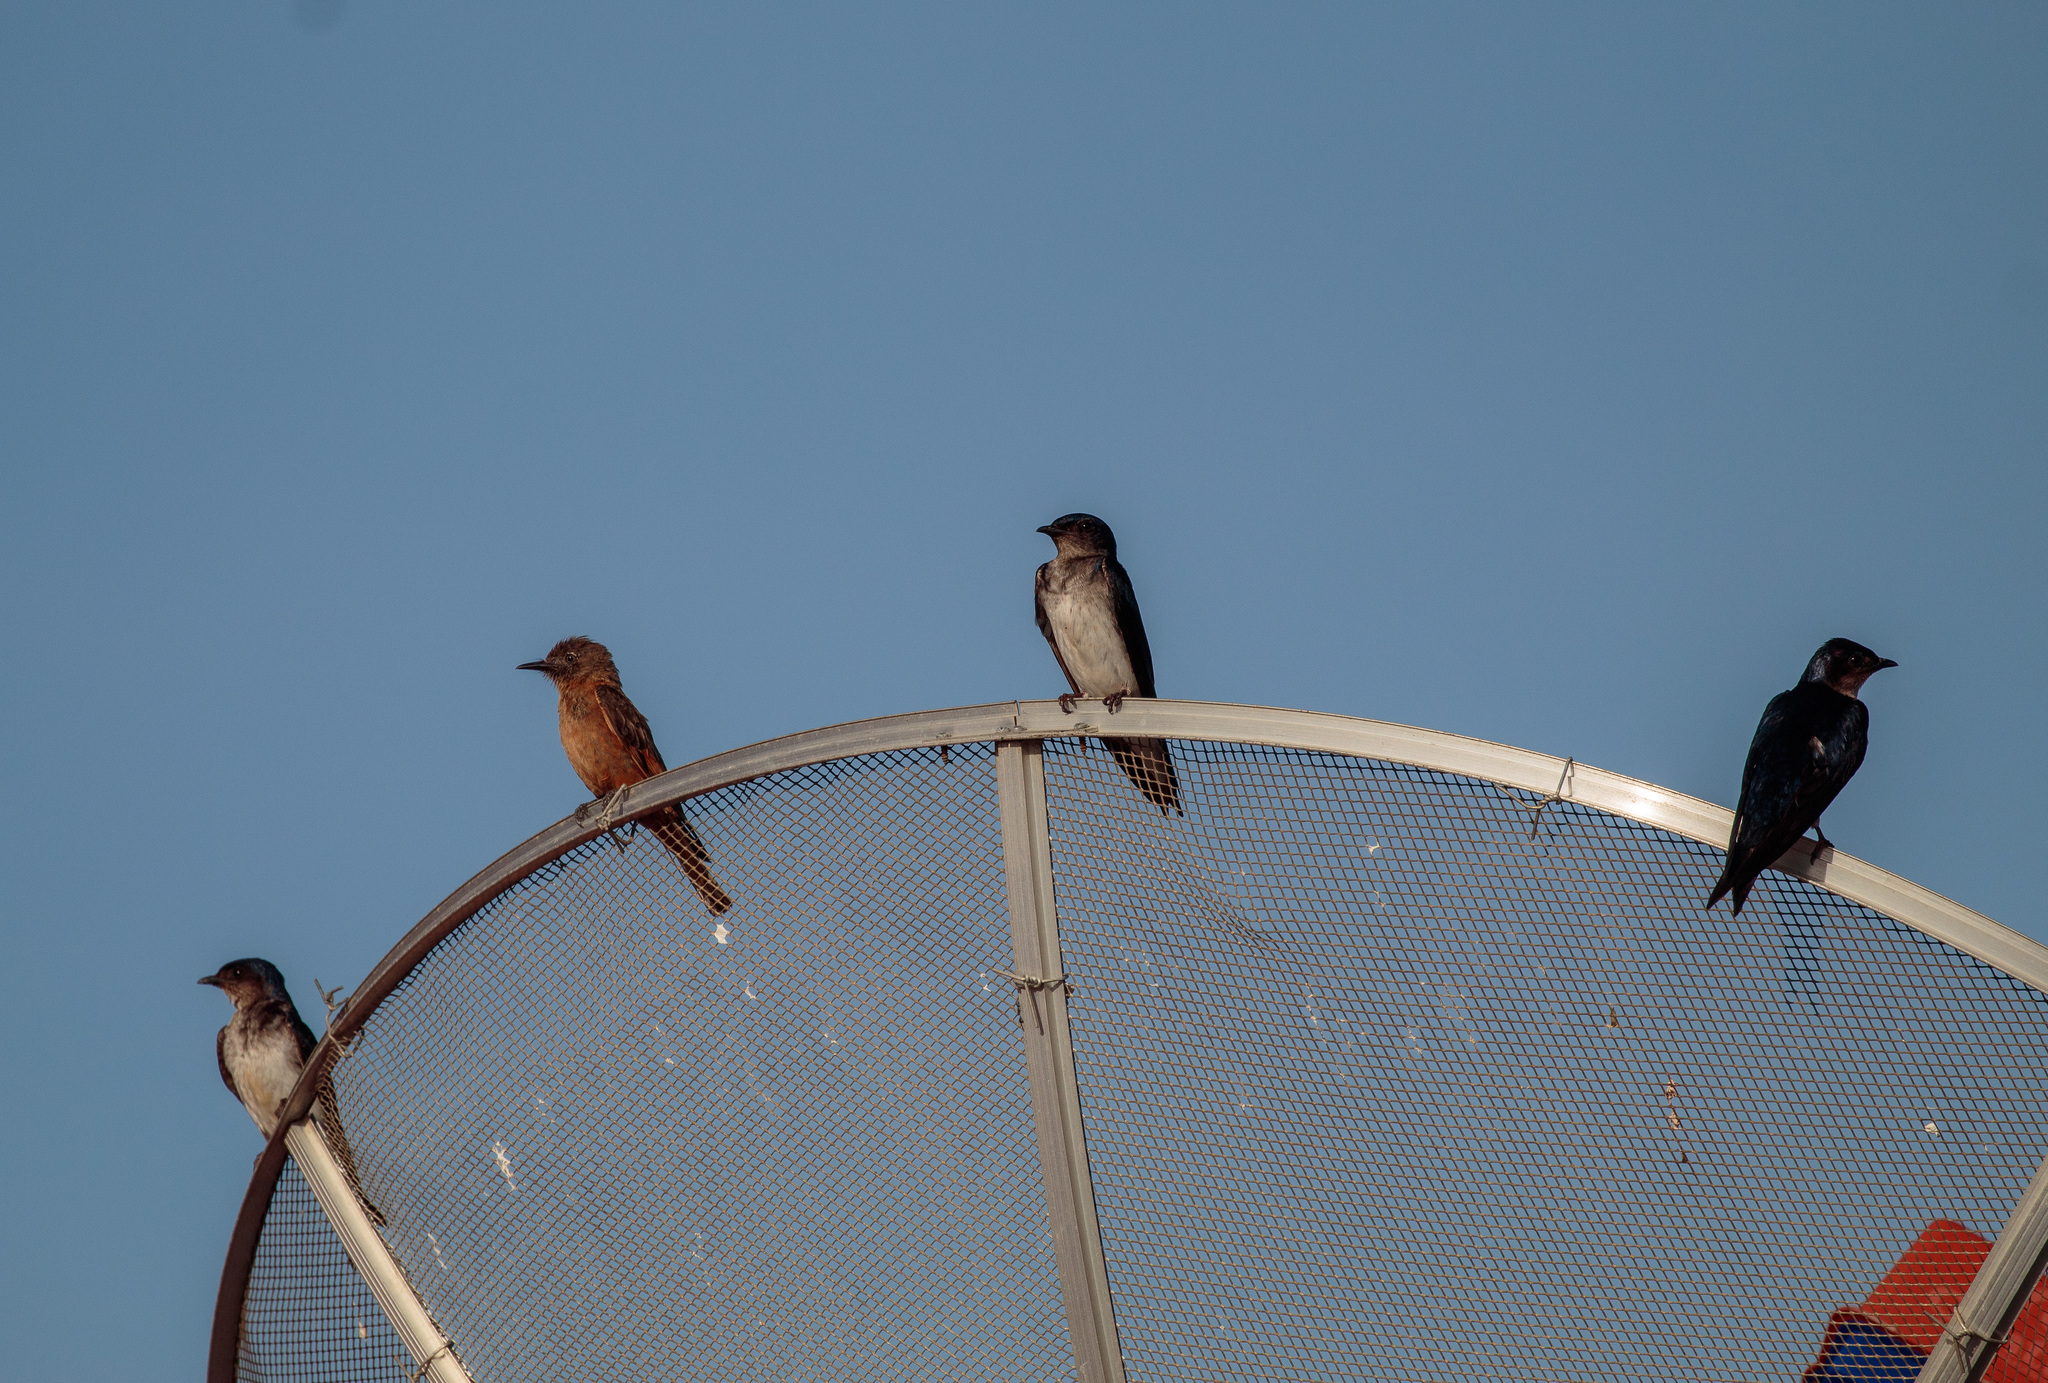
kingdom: Animalia
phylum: Chordata
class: Aves
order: Passeriformes
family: Hirundinidae
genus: Progne
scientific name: Progne chalybea
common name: Grey-breasted martin
